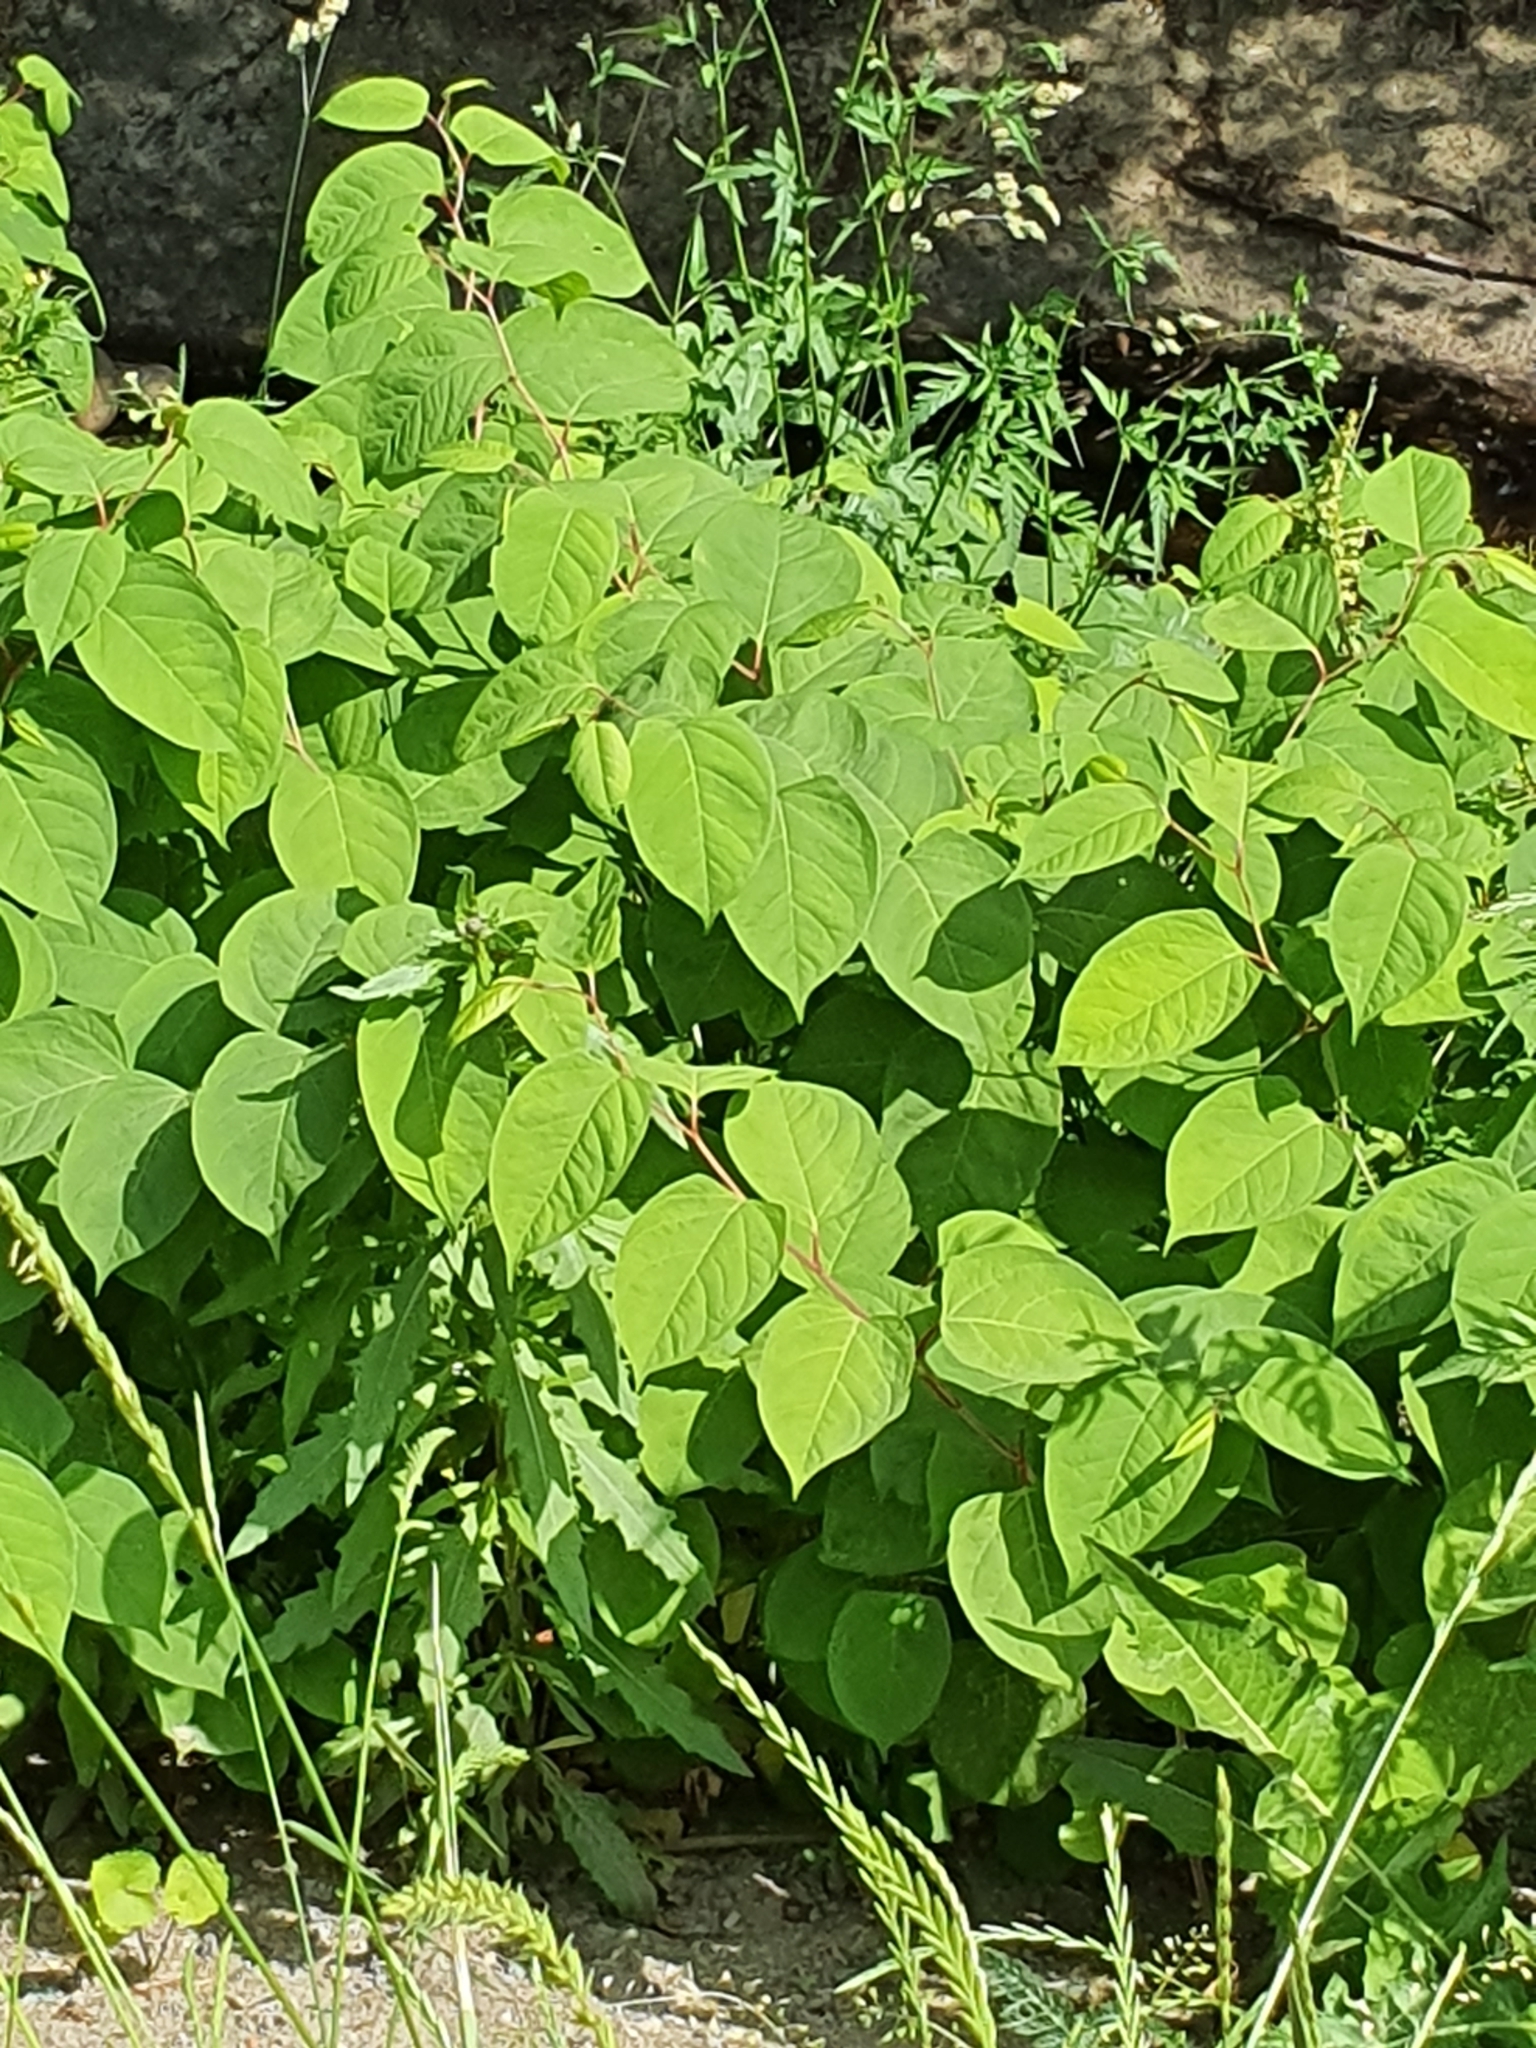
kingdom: Plantae
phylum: Tracheophyta
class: Magnoliopsida
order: Caryophyllales
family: Polygonaceae
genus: Reynoutria
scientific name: Reynoutria japonica
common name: Japanese knotweed
